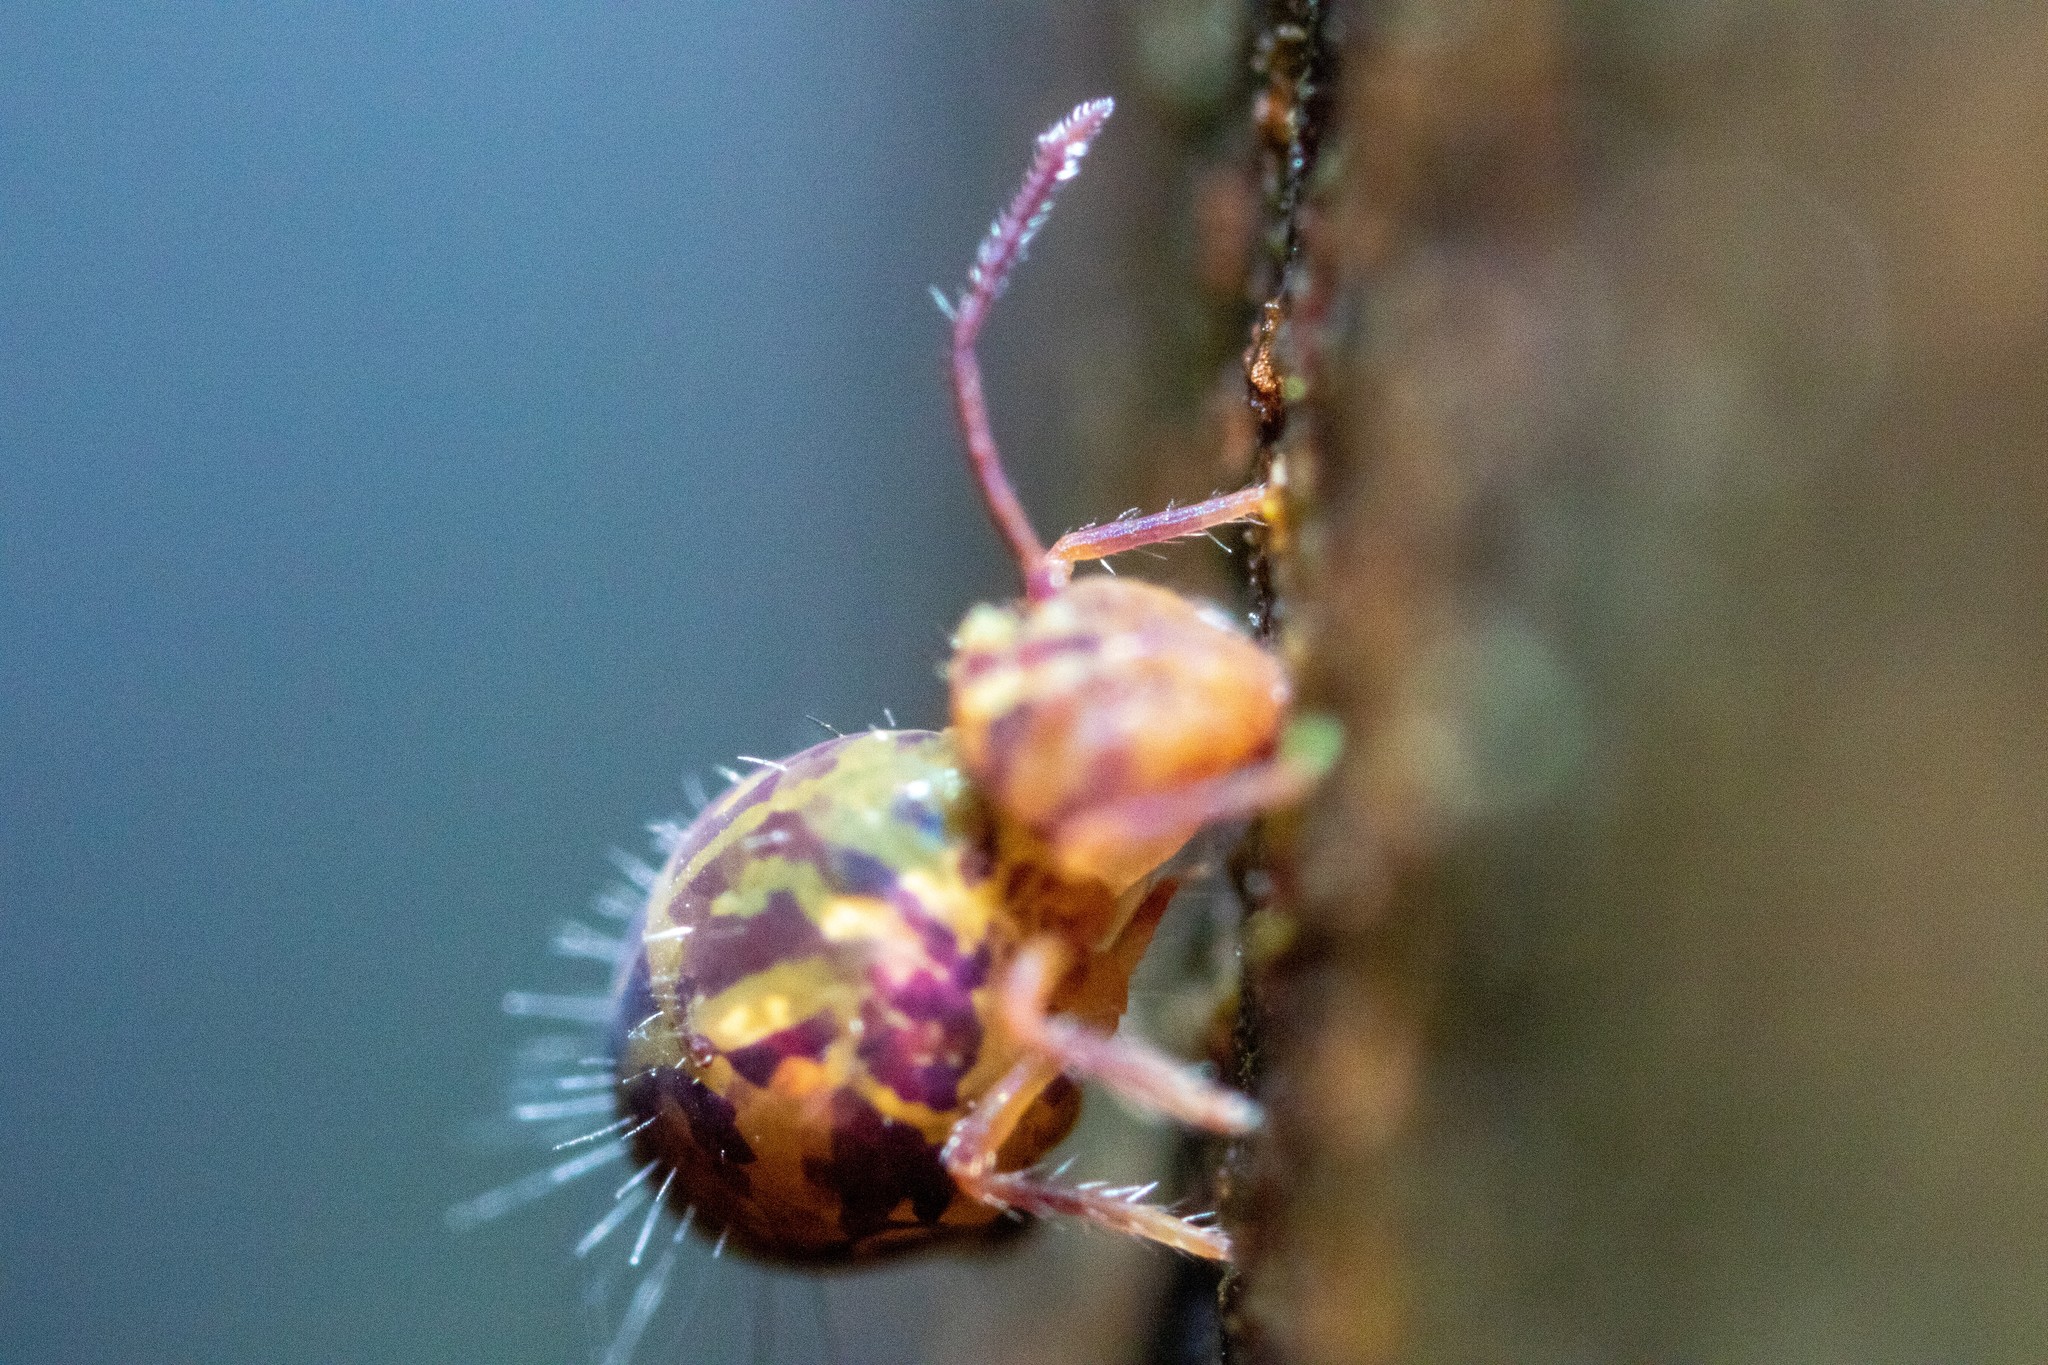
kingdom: Animalia
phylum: Arthropoda
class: Collembola
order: Symphypleona
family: Dicyrtomidae
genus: Dicyrtomina
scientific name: Dicyrtomina ornata
